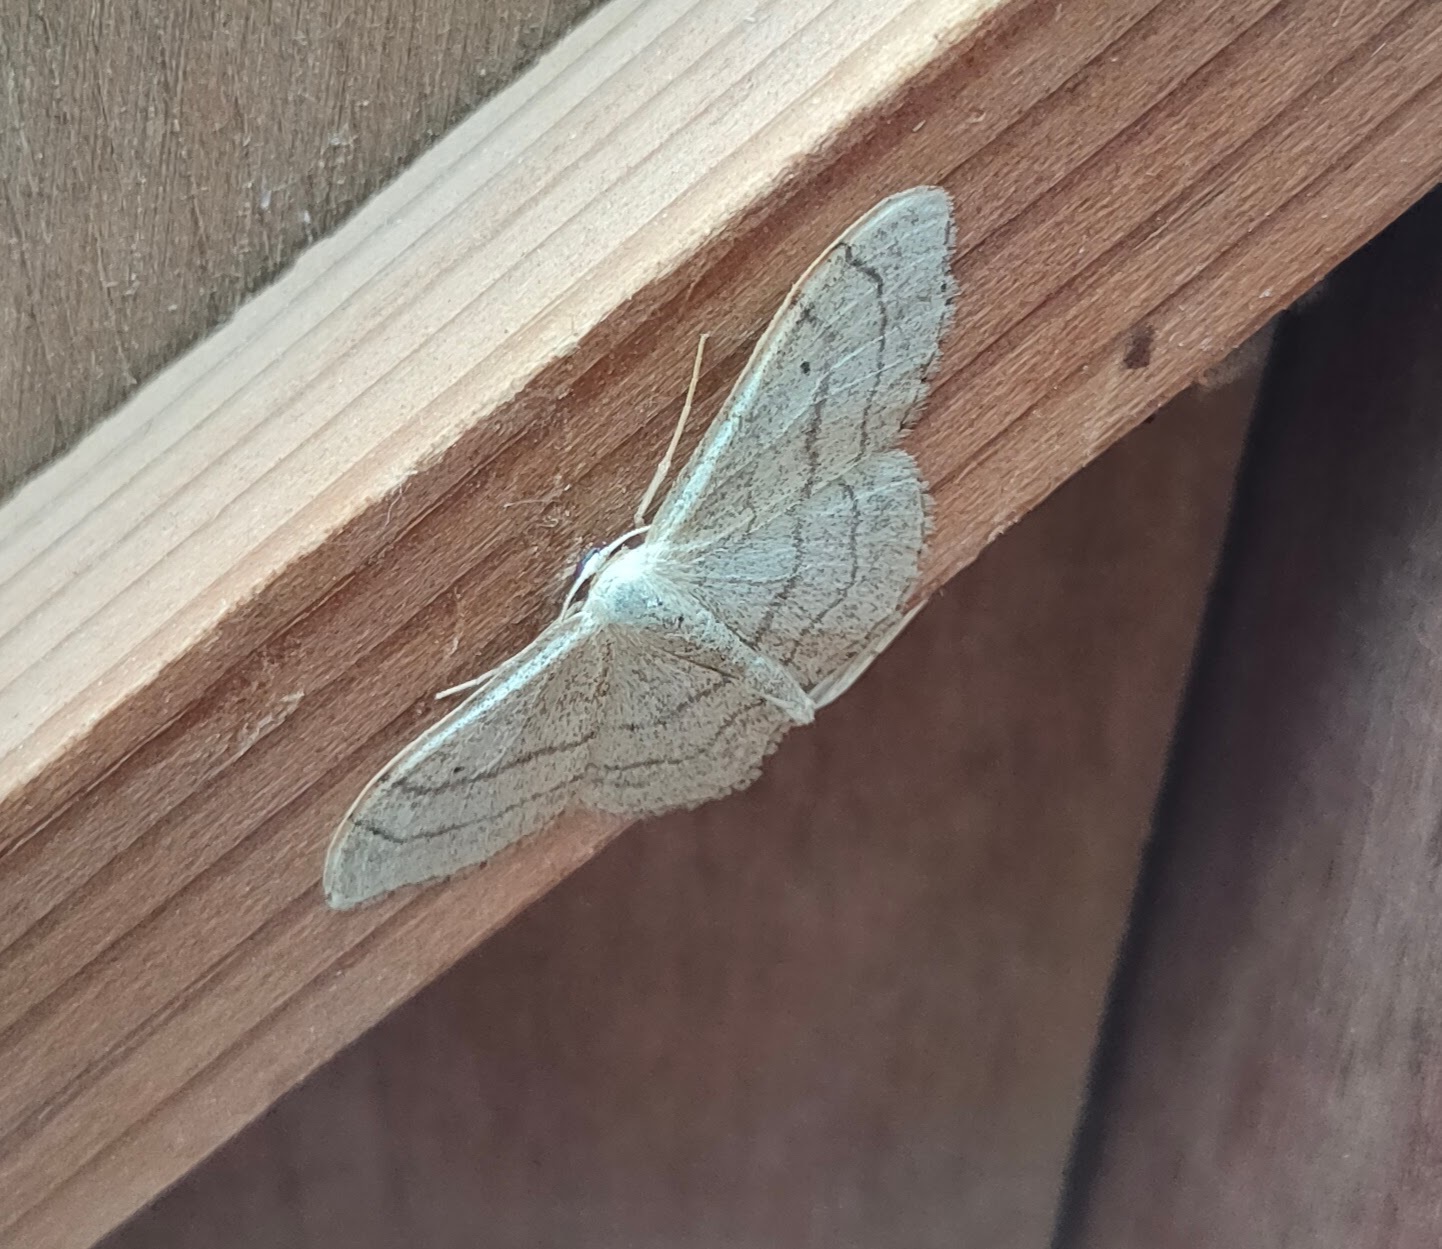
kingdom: Animalia
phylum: Arthropoda
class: Insecta
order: Lepidoptera
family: Geometridae
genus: Idaea
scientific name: Idaea aversata
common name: Riband wave
